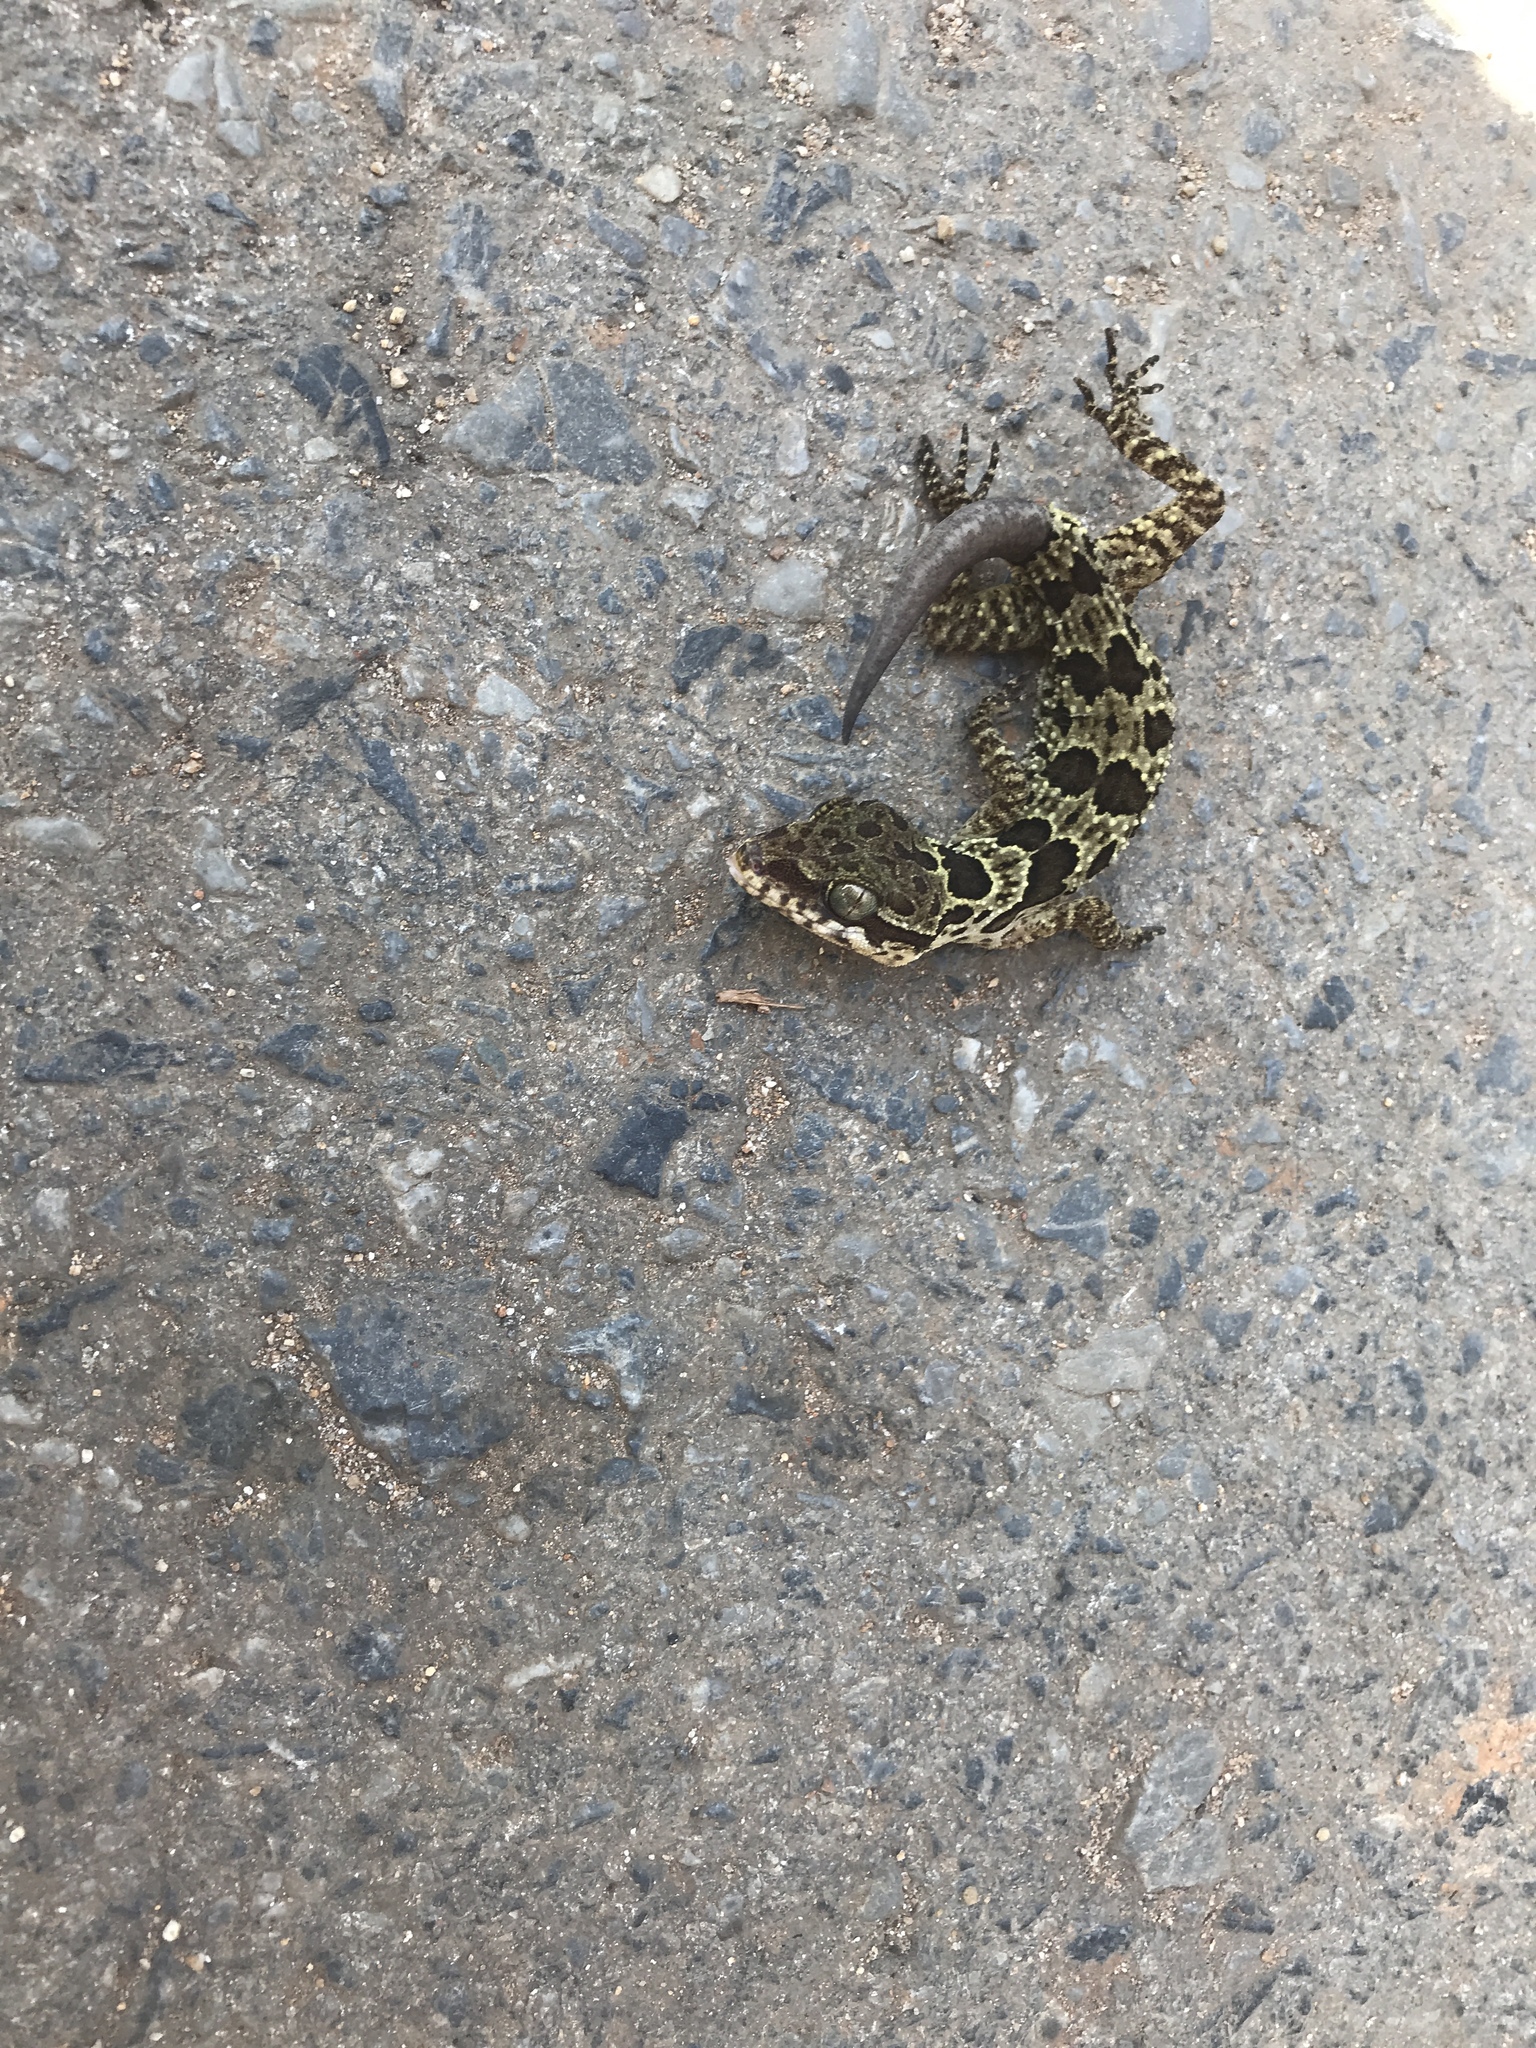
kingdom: Animalia
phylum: Chordata
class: Squamata
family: Gekkonidae
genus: Cyrtodactylus
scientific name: Cyrtodactylus papilionoides
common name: Butterfly forest gecko
